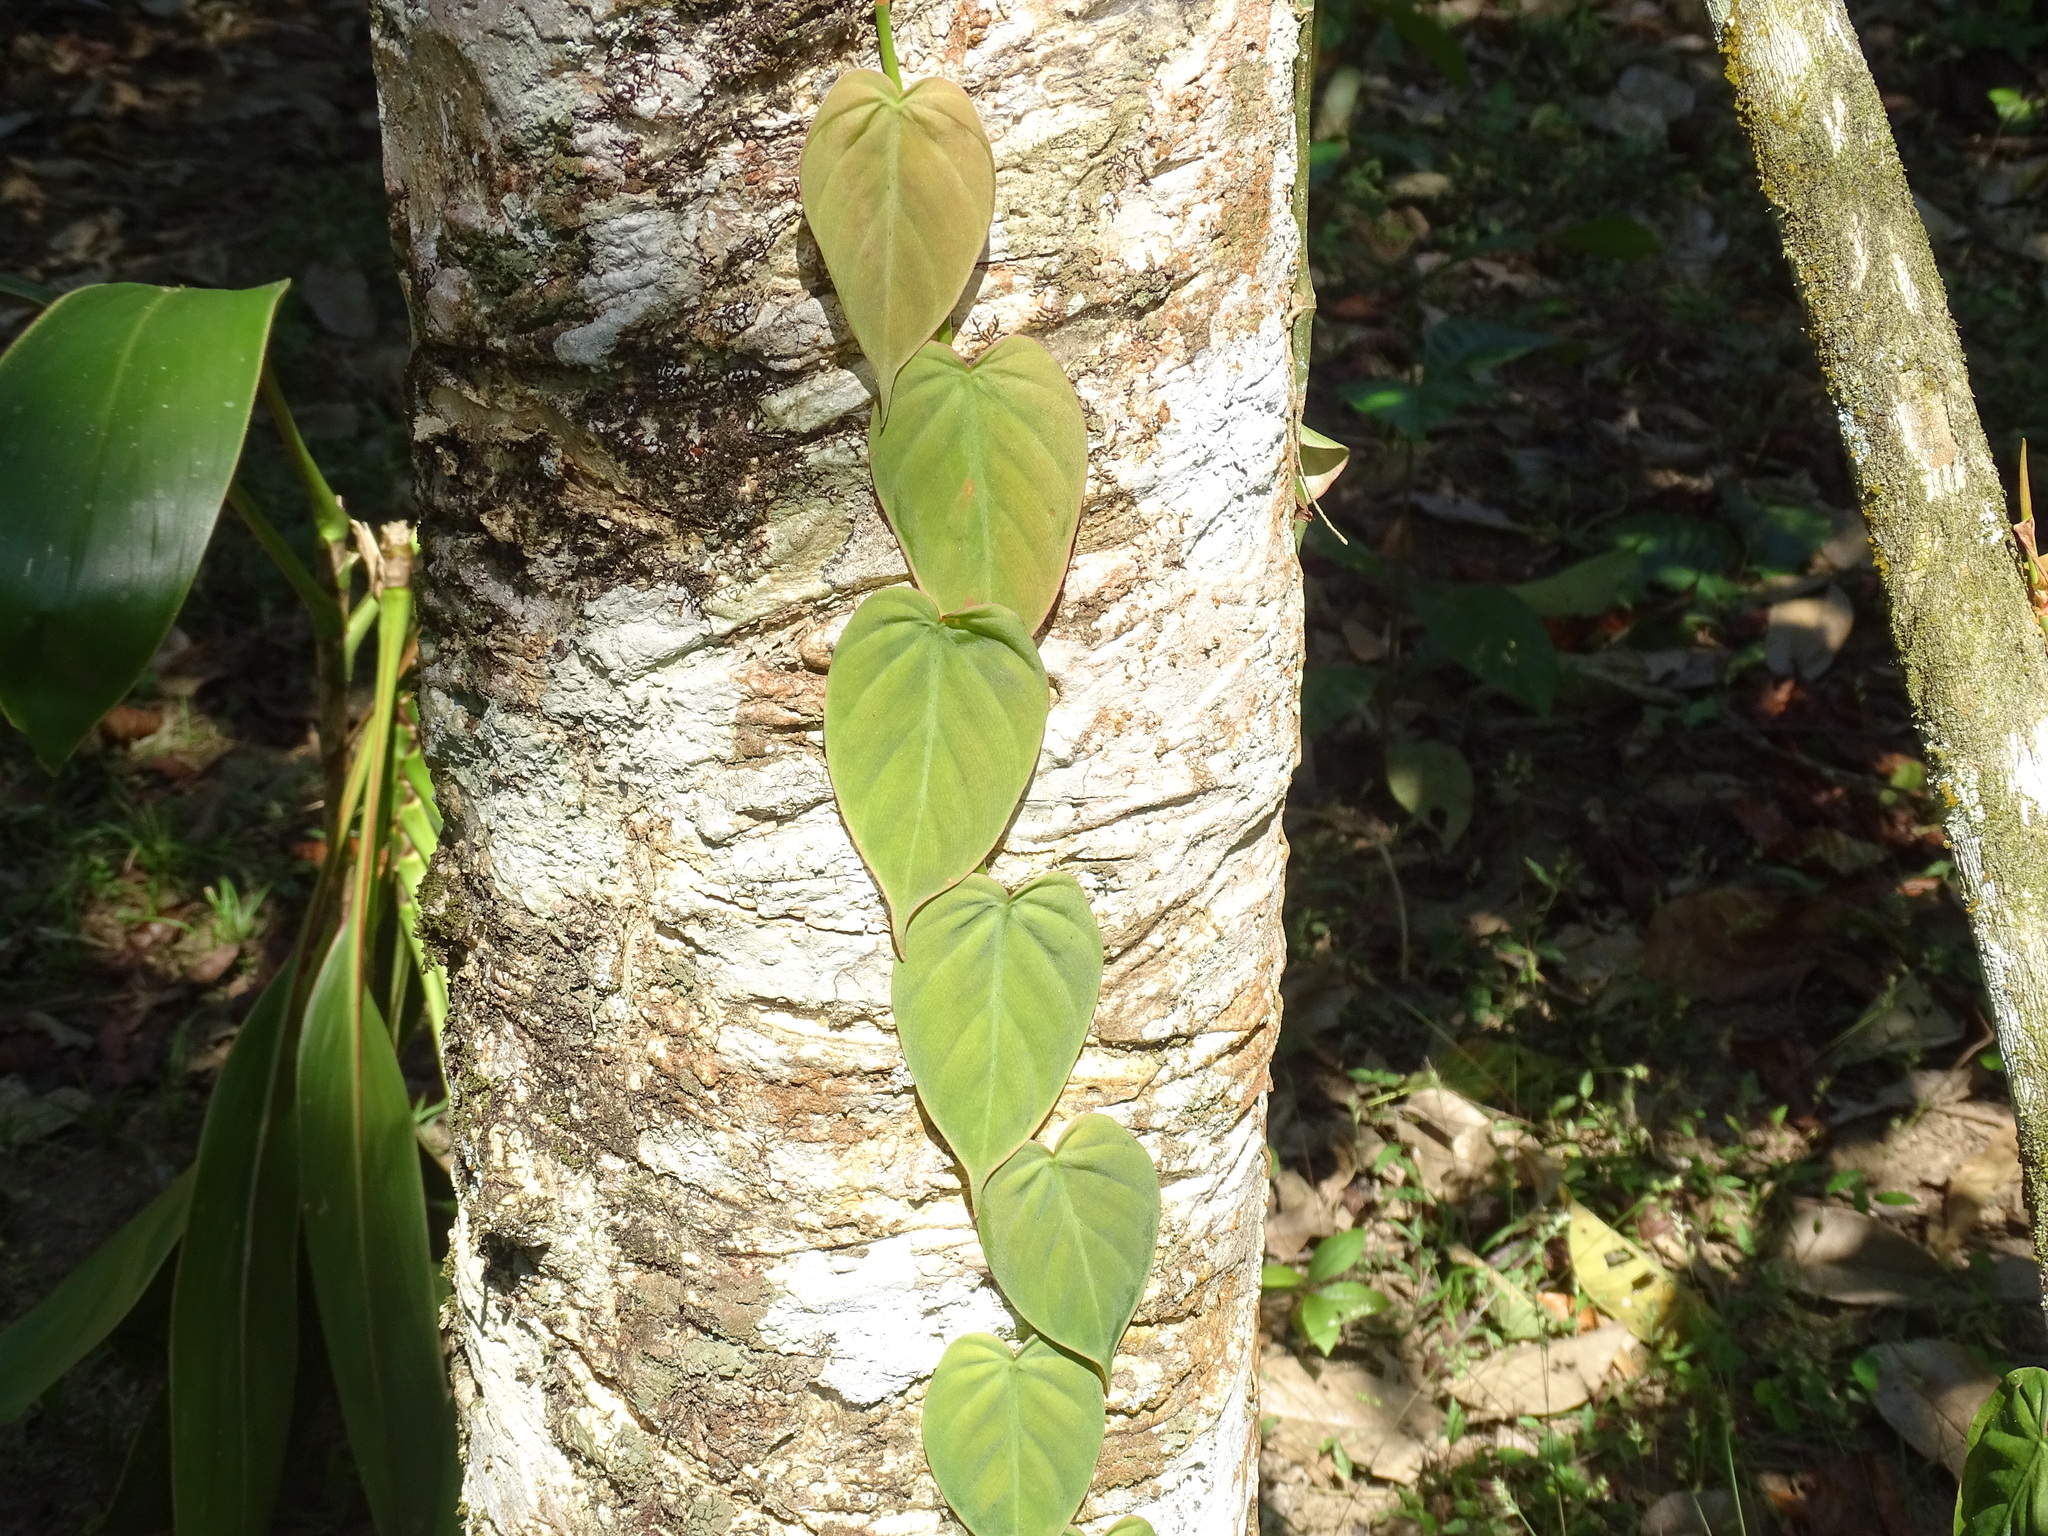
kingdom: Plantae
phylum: Tracheophyta
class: Liliopsida
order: Alismatales
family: Araceae
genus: Philodendron
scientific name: Philodendron hederaceum
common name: Vilevine
